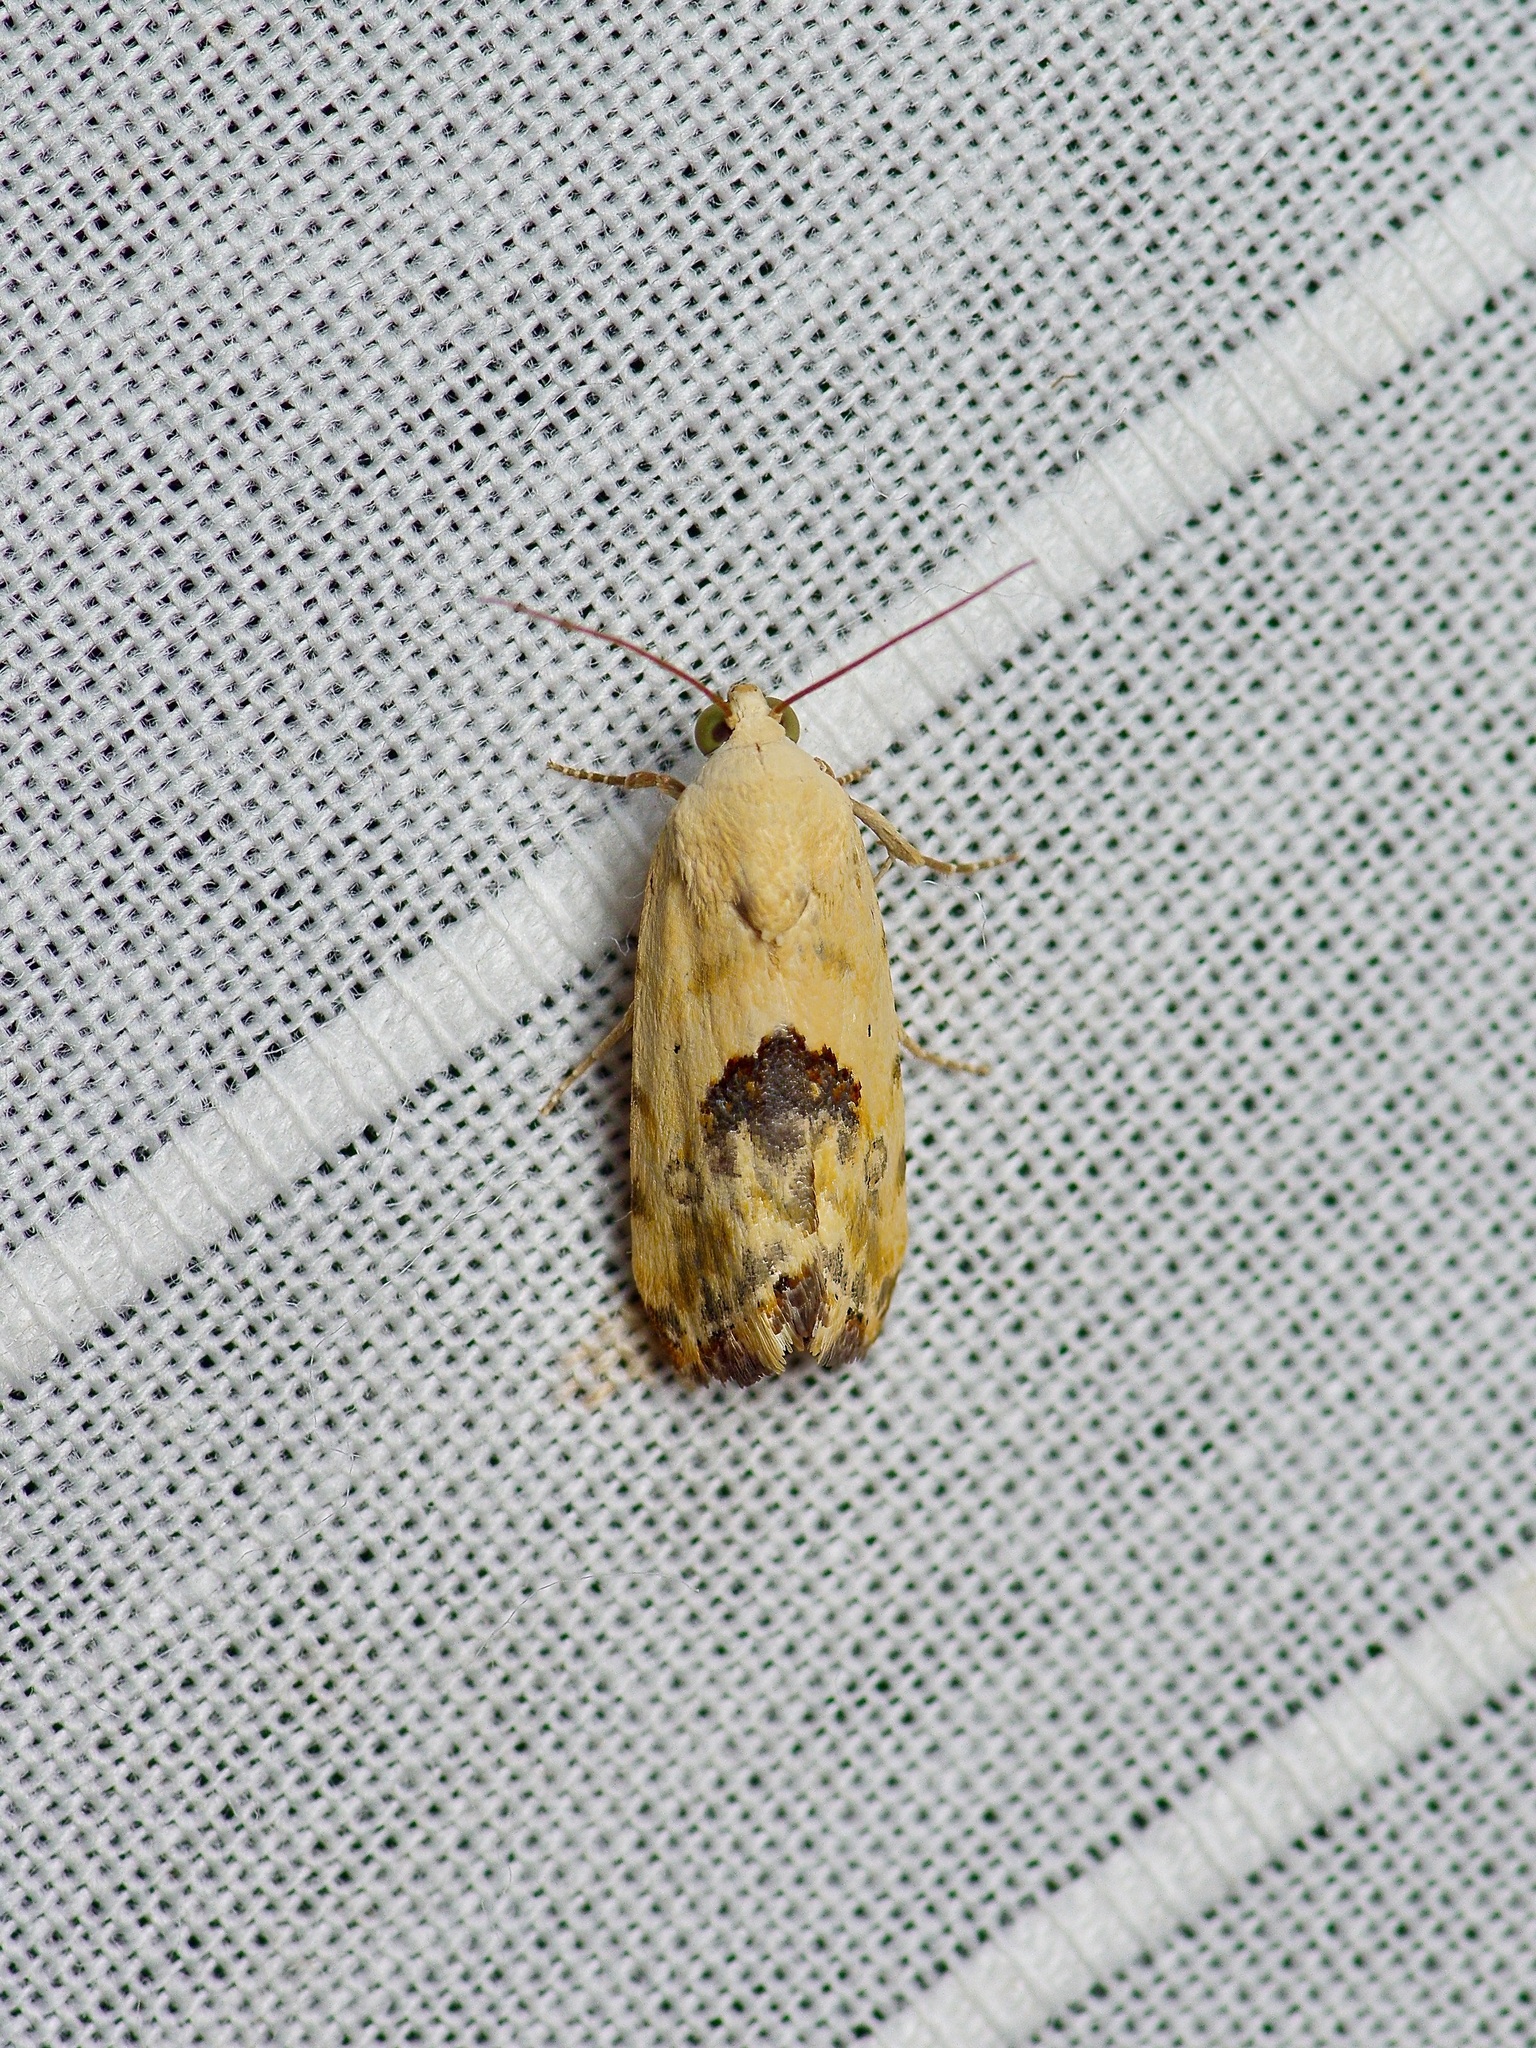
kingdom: Animalia
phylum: Arthropoda
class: Insecta
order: Lepidoptera
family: Noctuidae
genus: Acontia
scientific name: Acontia libedis
